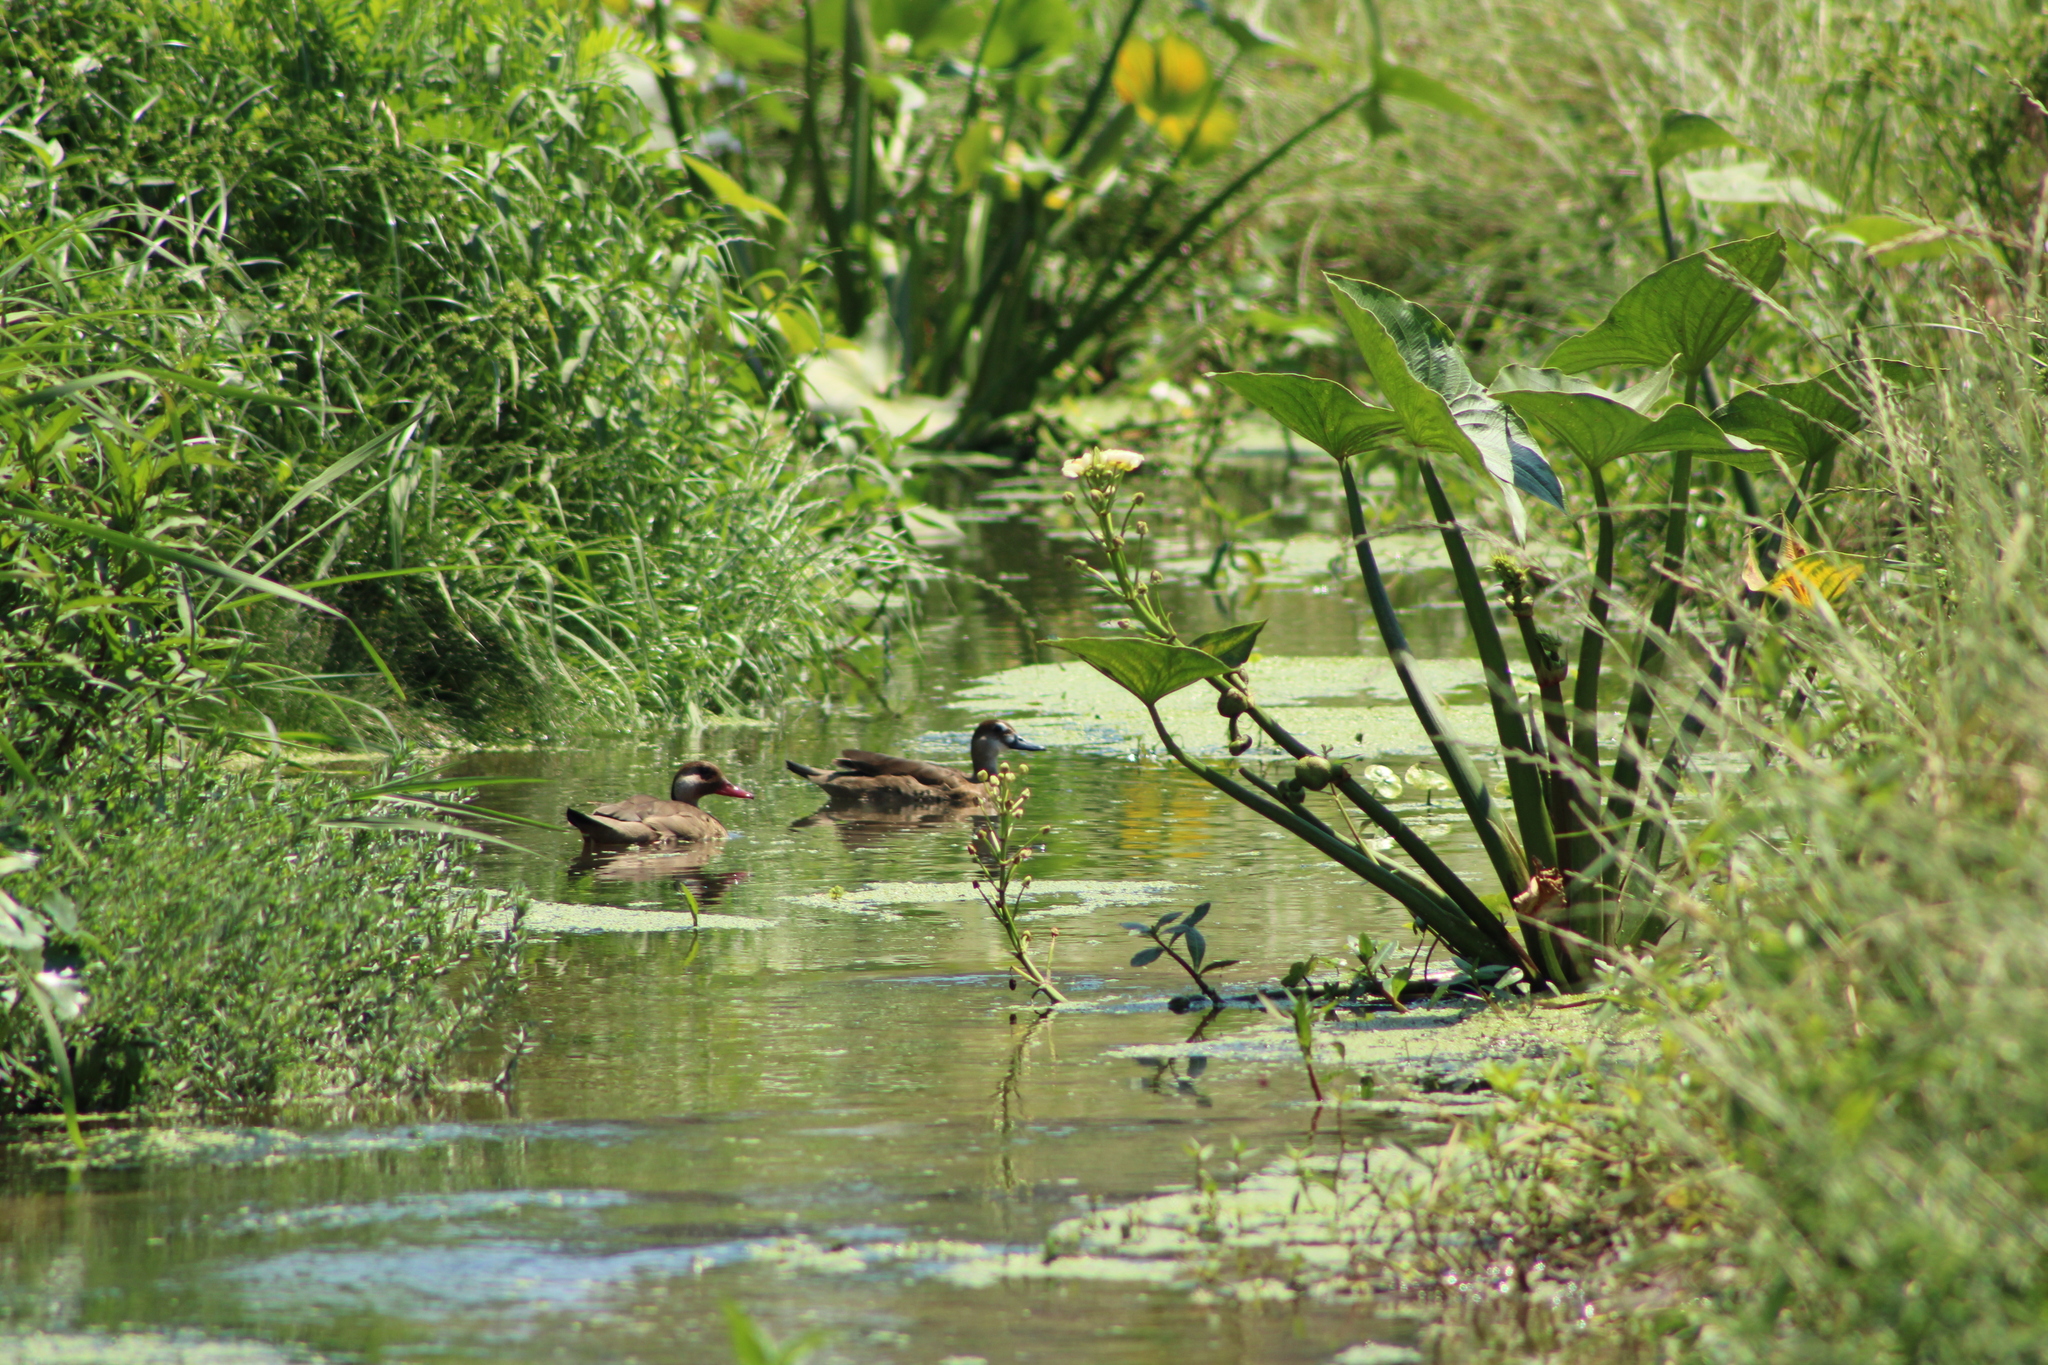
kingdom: Animalia
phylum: Chordata
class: Aves
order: Anseriformes
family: Anatidae
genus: Amazonetta
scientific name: Amazonetta brasiliensis
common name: Brazilian teal
